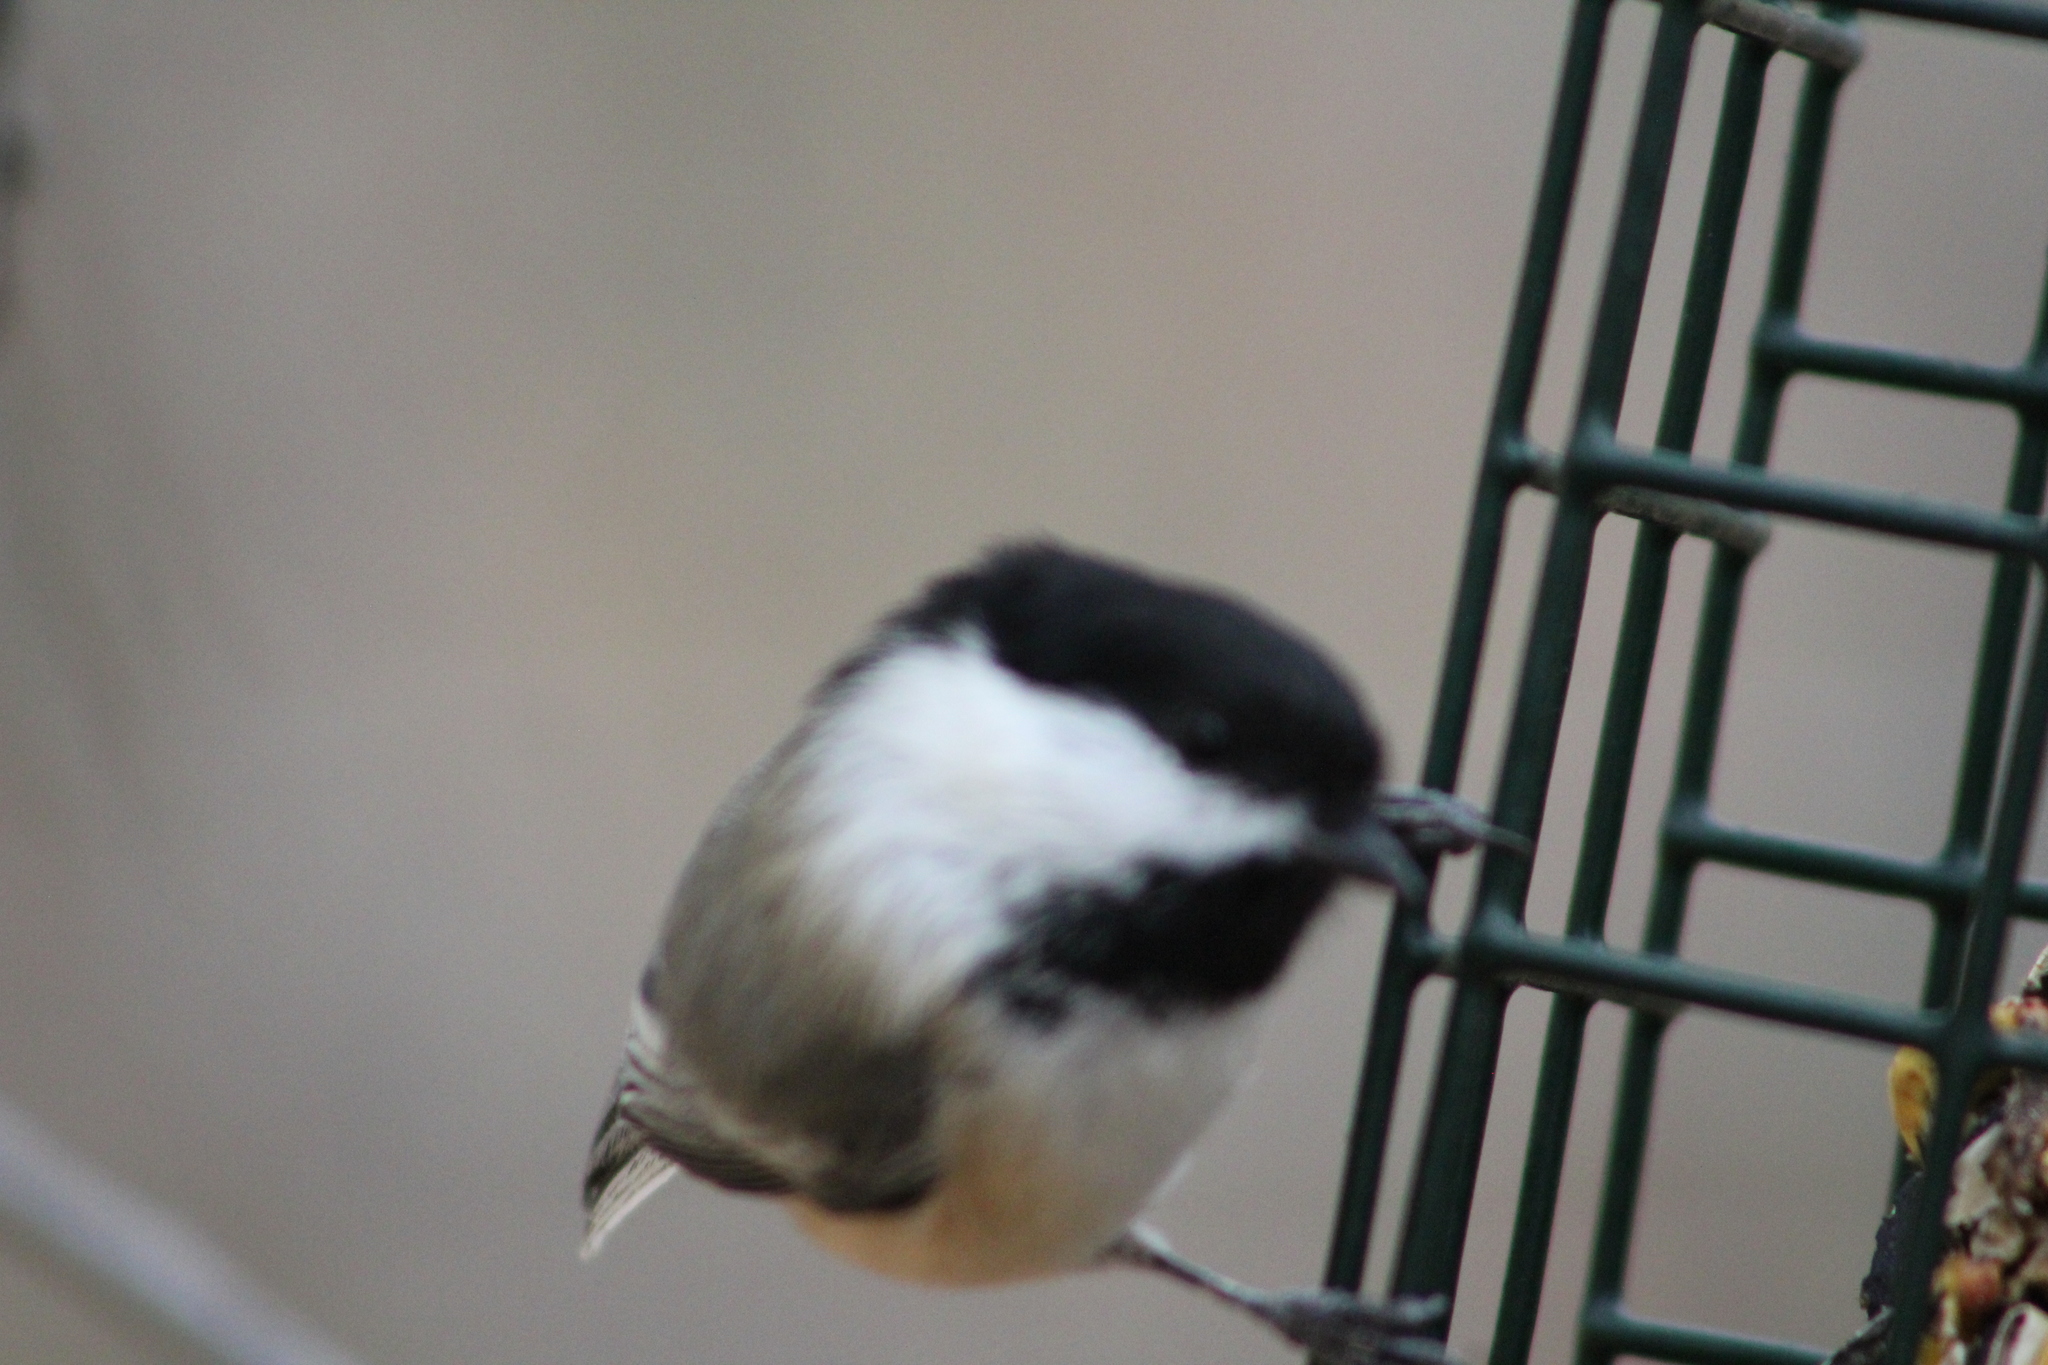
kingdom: Animalia
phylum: Chordata
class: Aves
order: Passeriformes
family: Paridae
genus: Poecile
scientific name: Poecile atricapillus
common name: Black-capped chickadee
